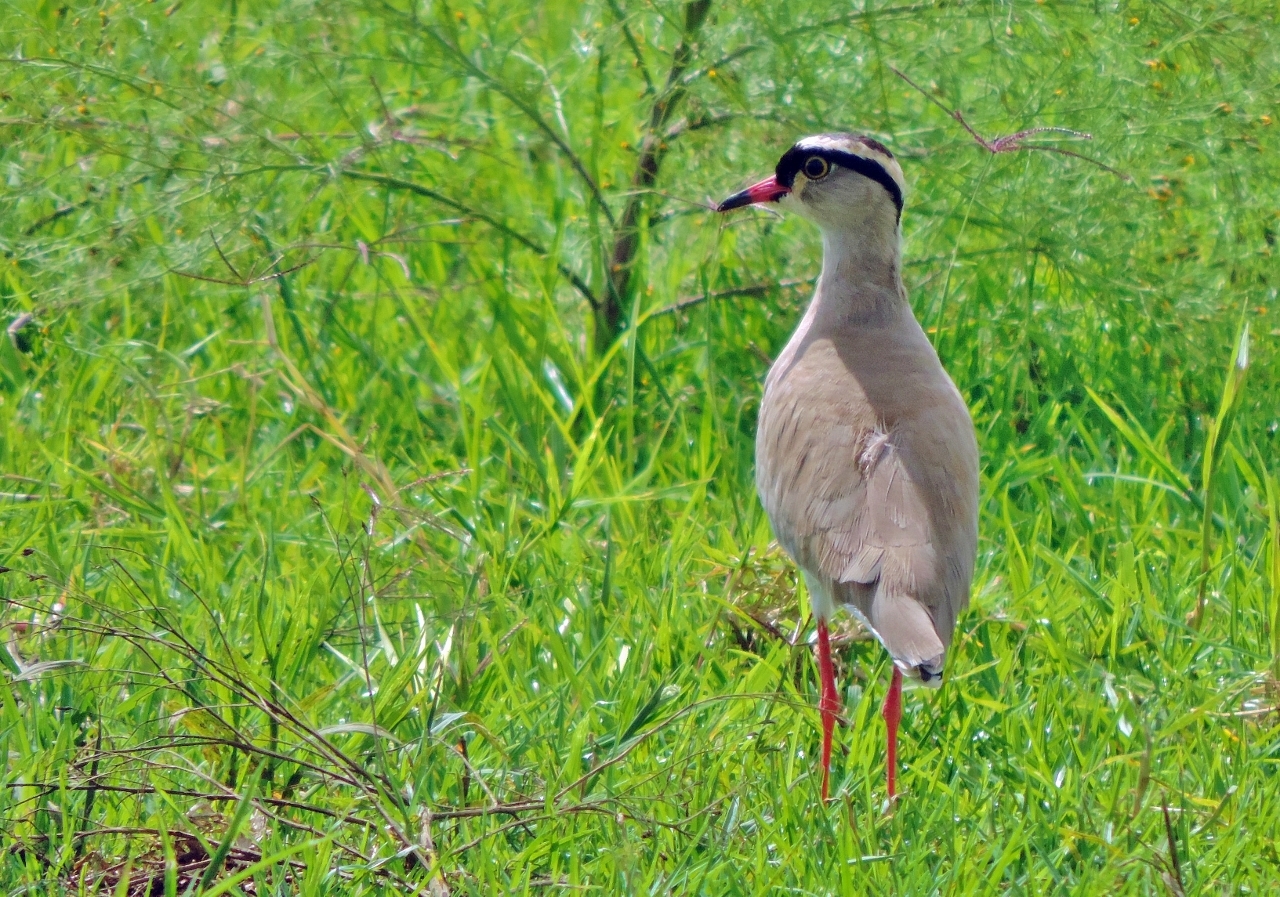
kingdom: Animalia
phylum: Chordata
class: Aves
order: Charadriiformes
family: Charadriidae
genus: Vanellus
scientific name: Vanellus coronatus
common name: Crowned lapwing
